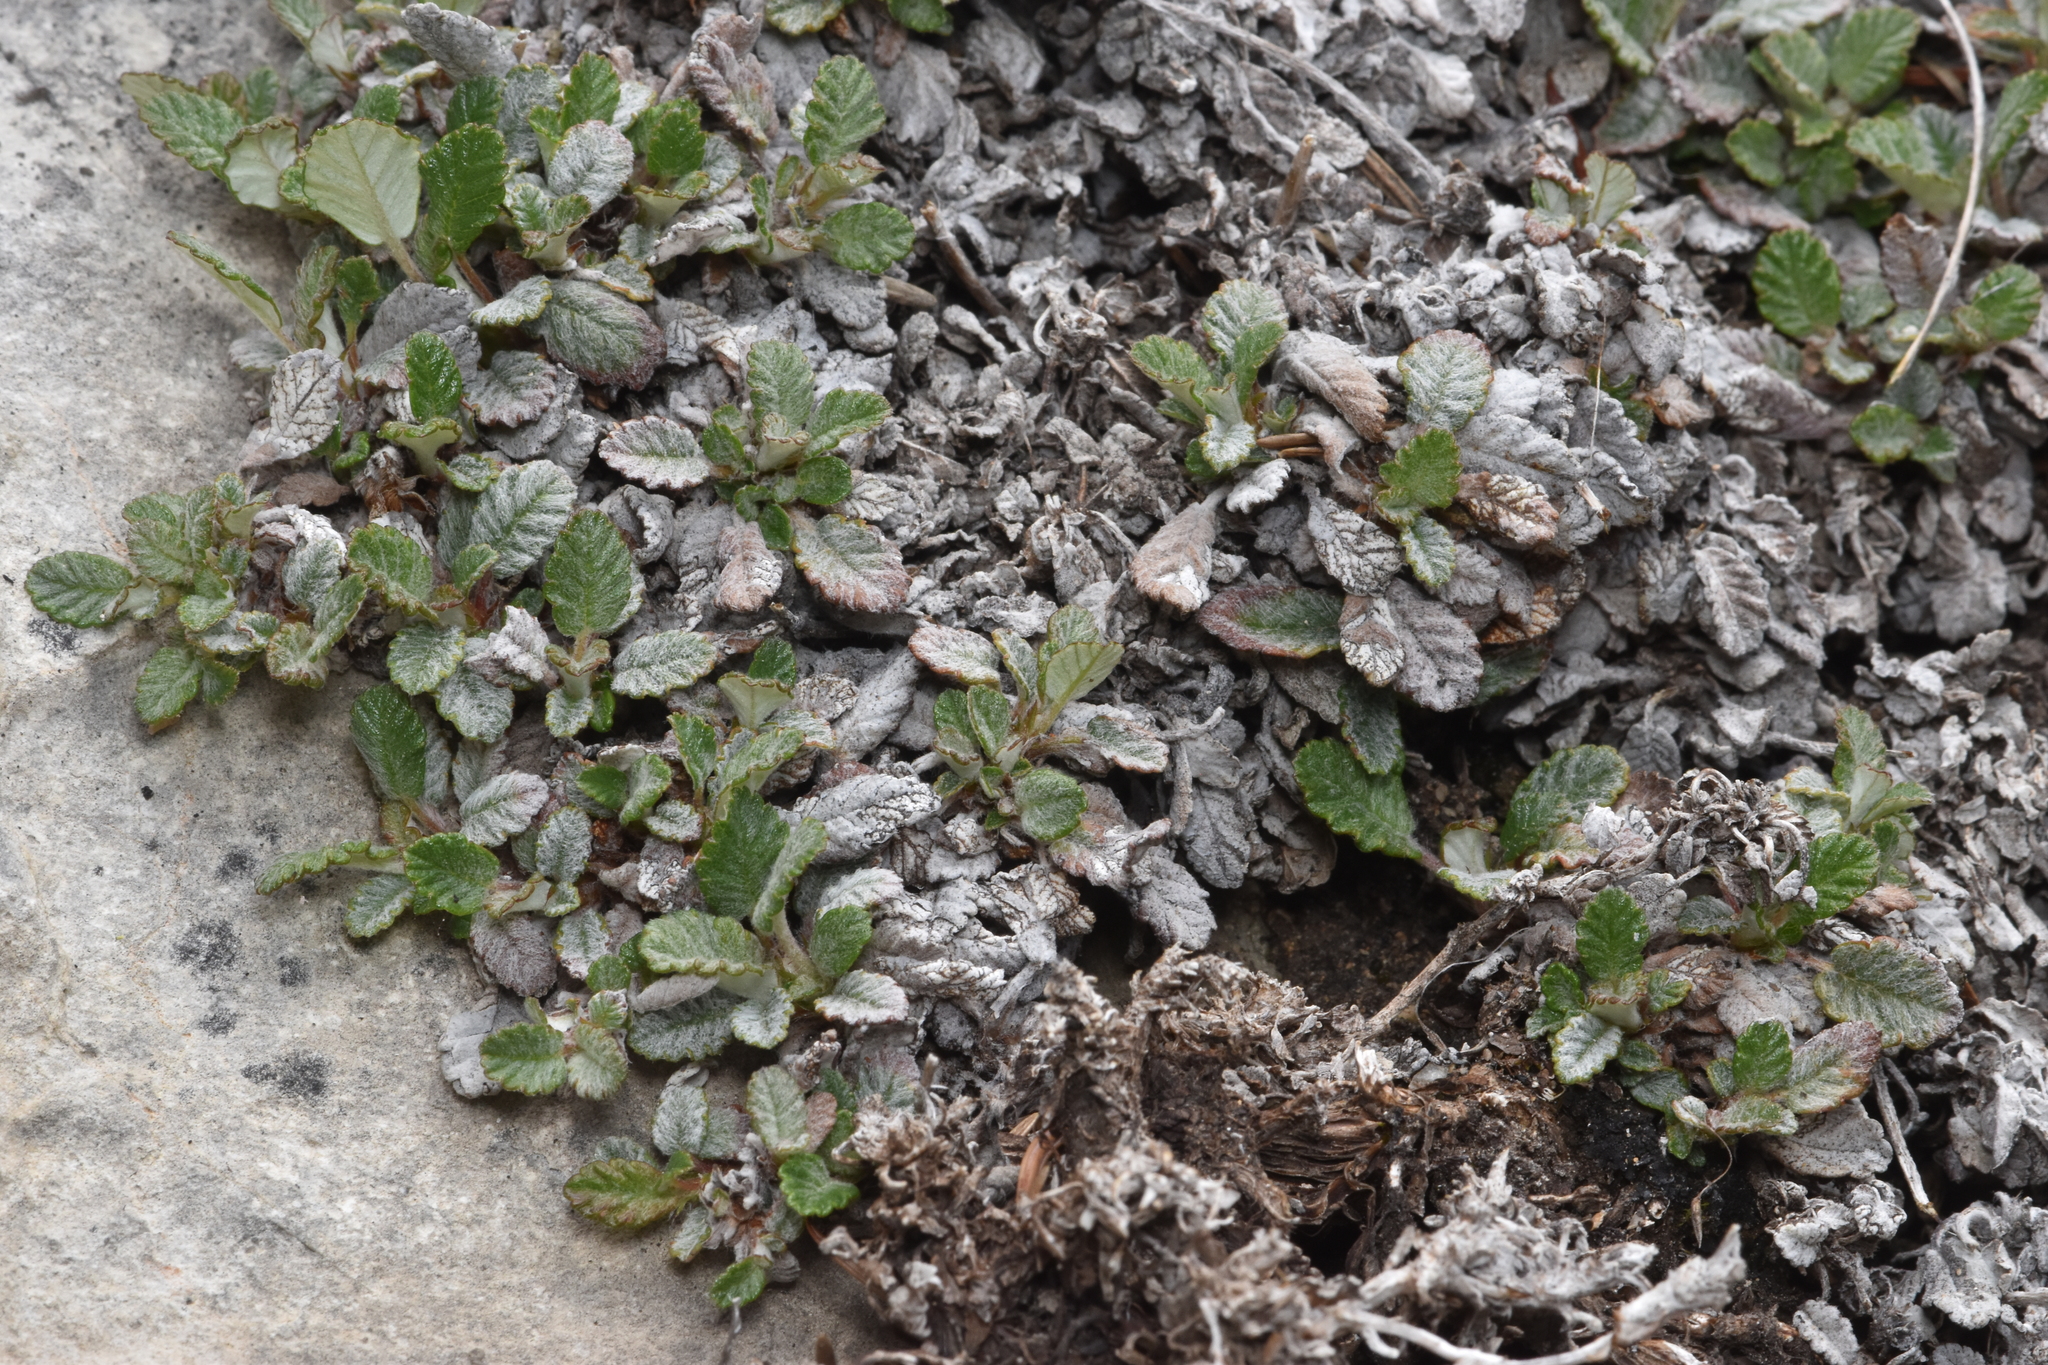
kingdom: Plantae
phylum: Tracheophyta
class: Magnoliopsida
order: Rosales
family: Rosaceae
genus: Dryas
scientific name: Dryas drummondii
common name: Drummond's dryad
